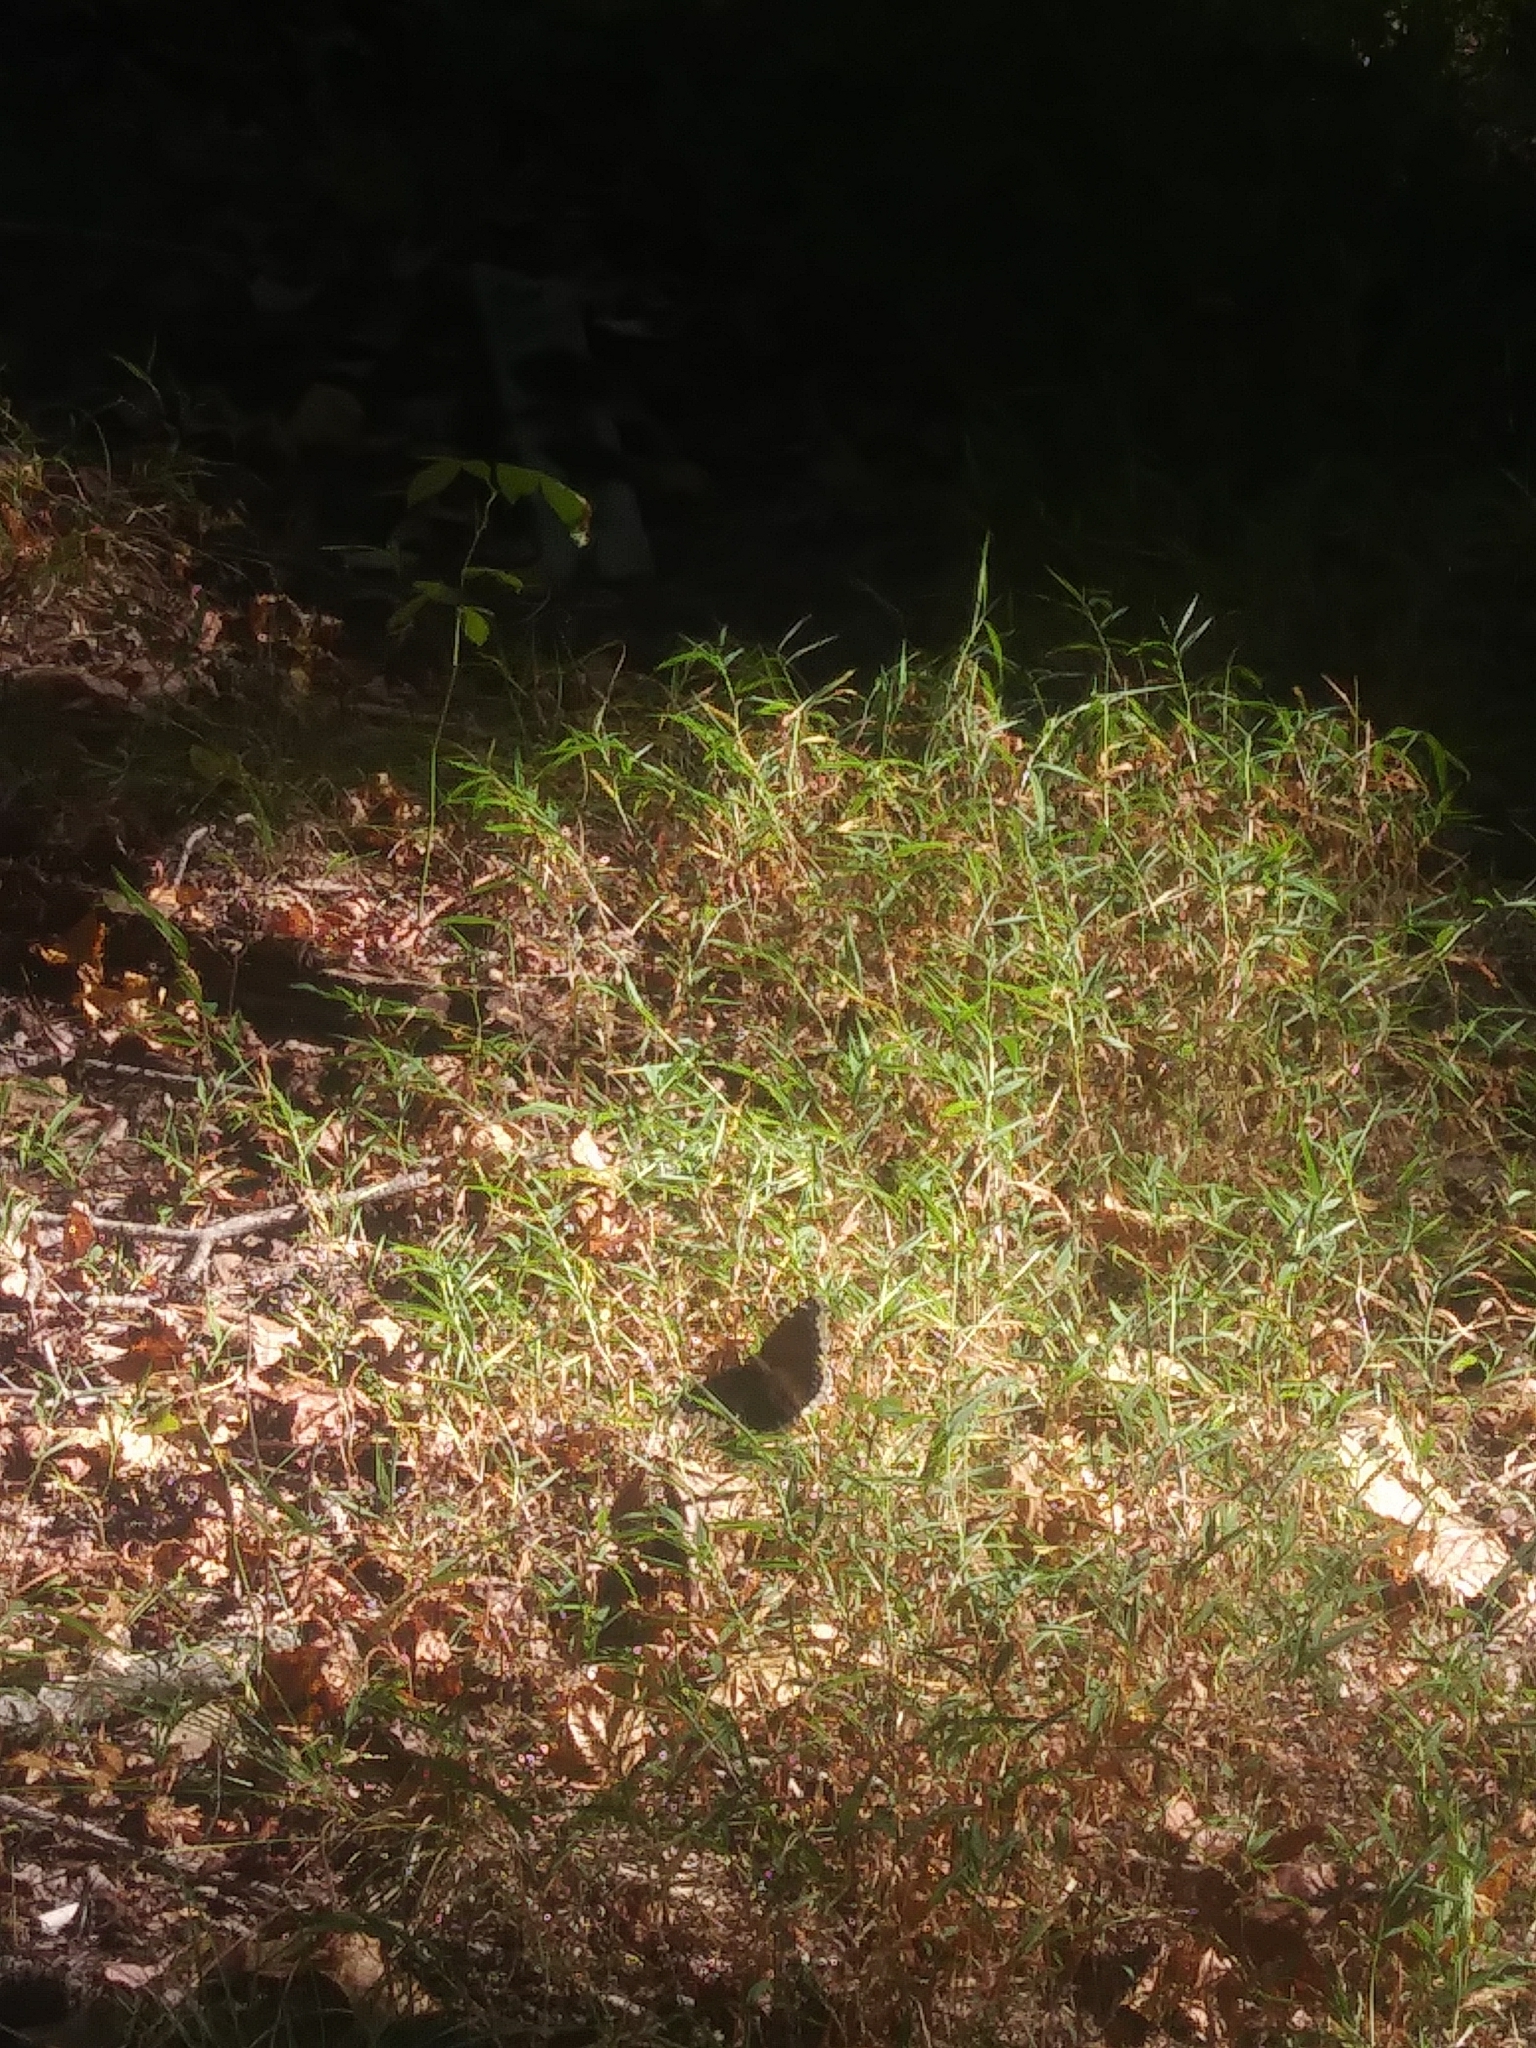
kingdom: Animalia
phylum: Arthropoda
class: Insecta
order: Lepidoptera
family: Nymphalidae
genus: Nymphalis
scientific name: Nymphalis antiopa
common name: Camberwell beauty
